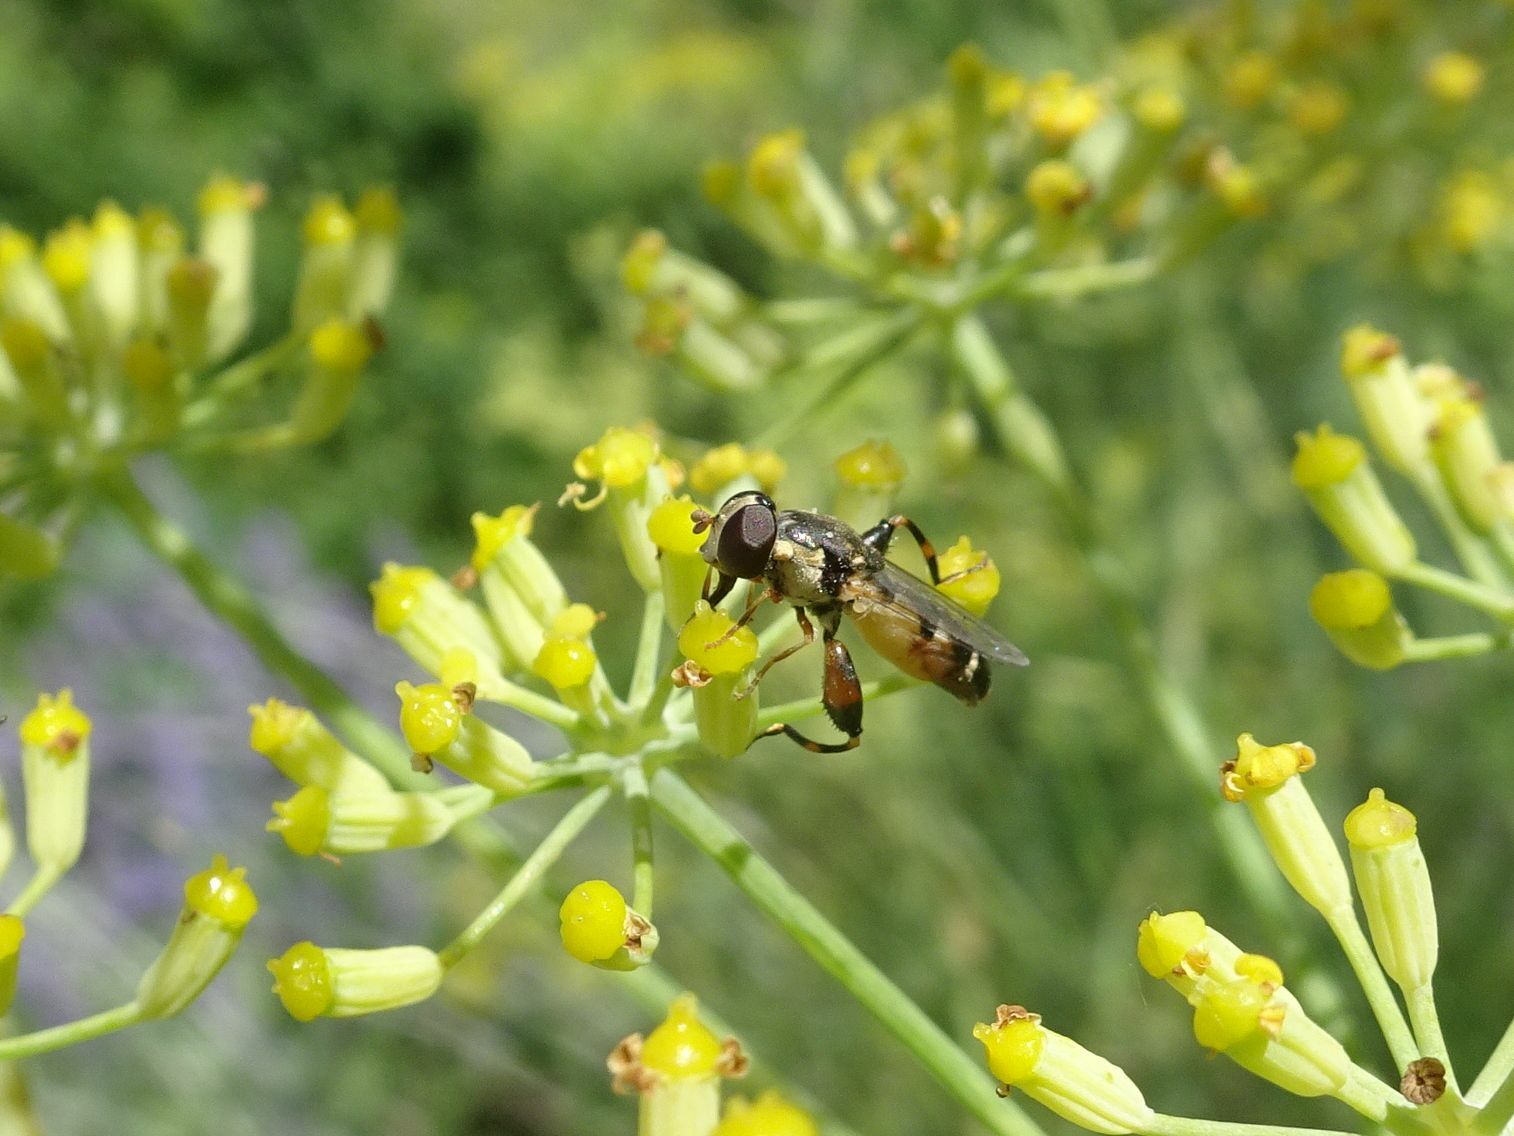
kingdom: Animalia
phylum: Arthropoda
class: Insecta
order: Diptera
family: Syrphidae
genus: Syritta
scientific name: Syritta pipiens
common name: Hover fly
